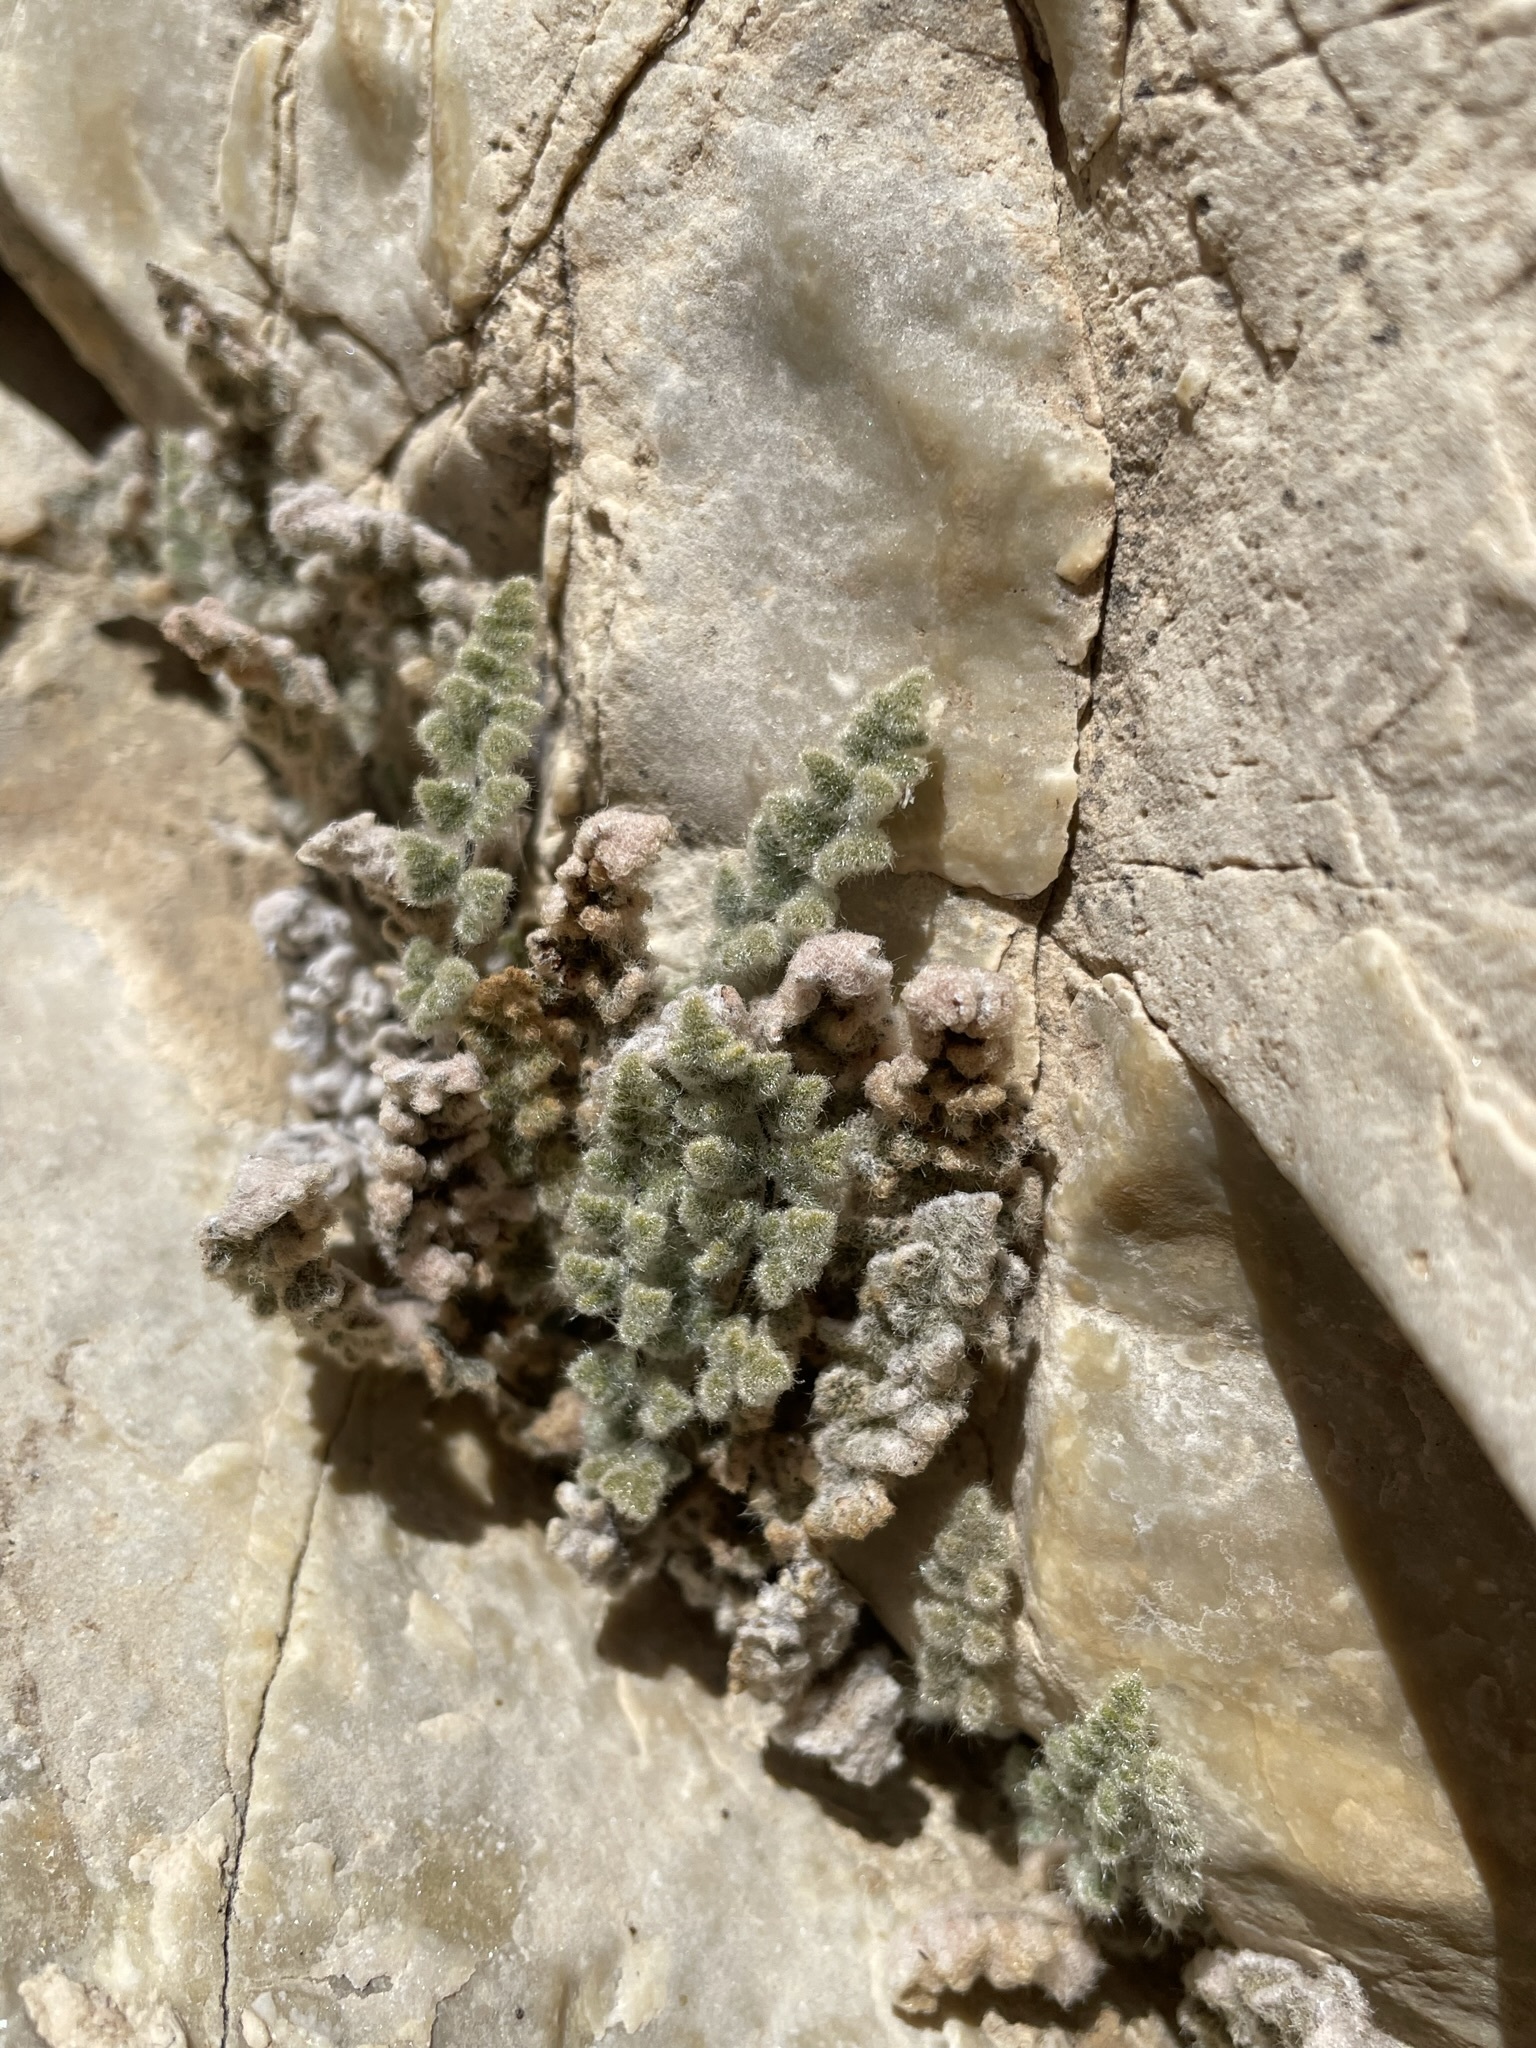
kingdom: Plantae
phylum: Tracheophyta
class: Polypodiopsida
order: Polypodiales
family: Pteridaceae
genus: Myriopteris
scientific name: Myriopteris parryi
